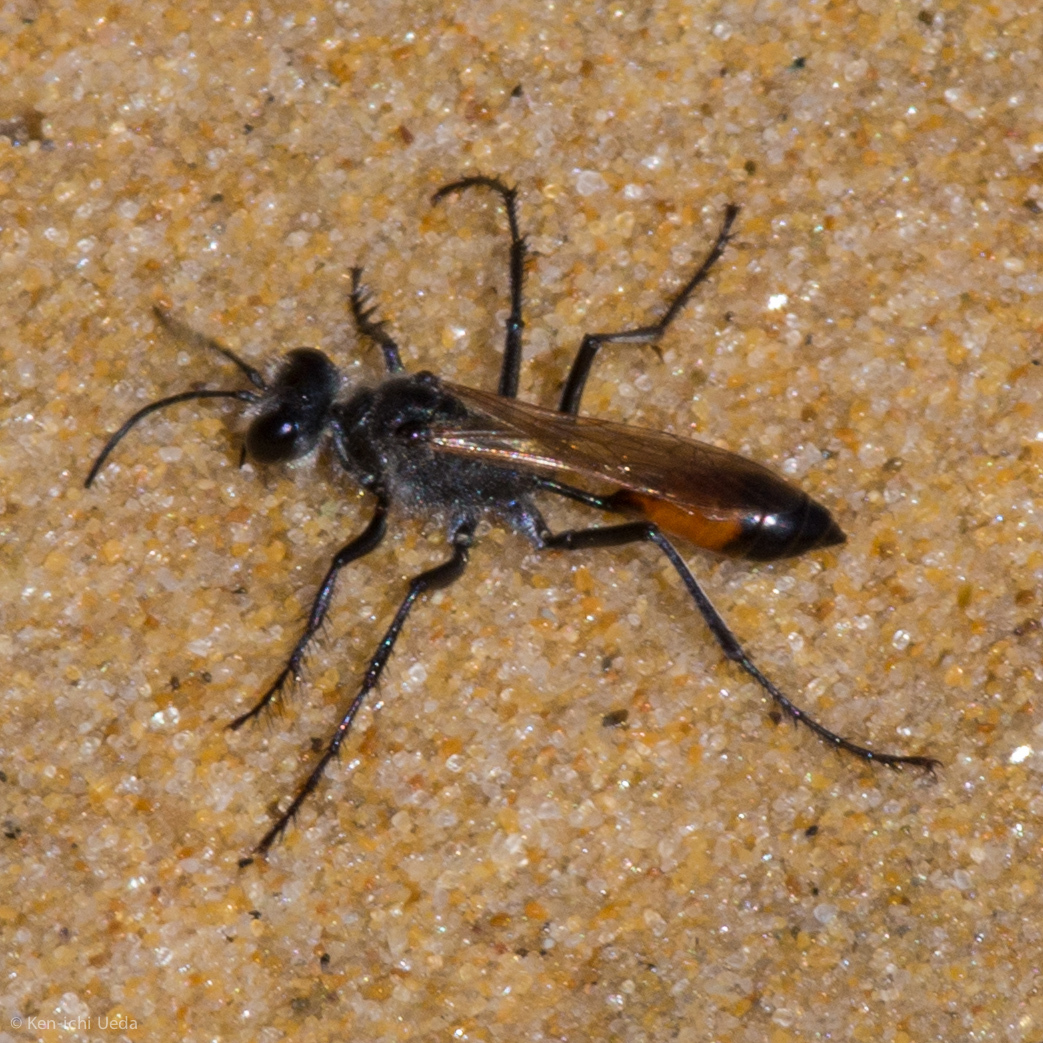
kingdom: Animalia
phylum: Arthropoda
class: Insecta
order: Hymenoptera
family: Sphecidae
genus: Podalonia
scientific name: Podalonia tydei
